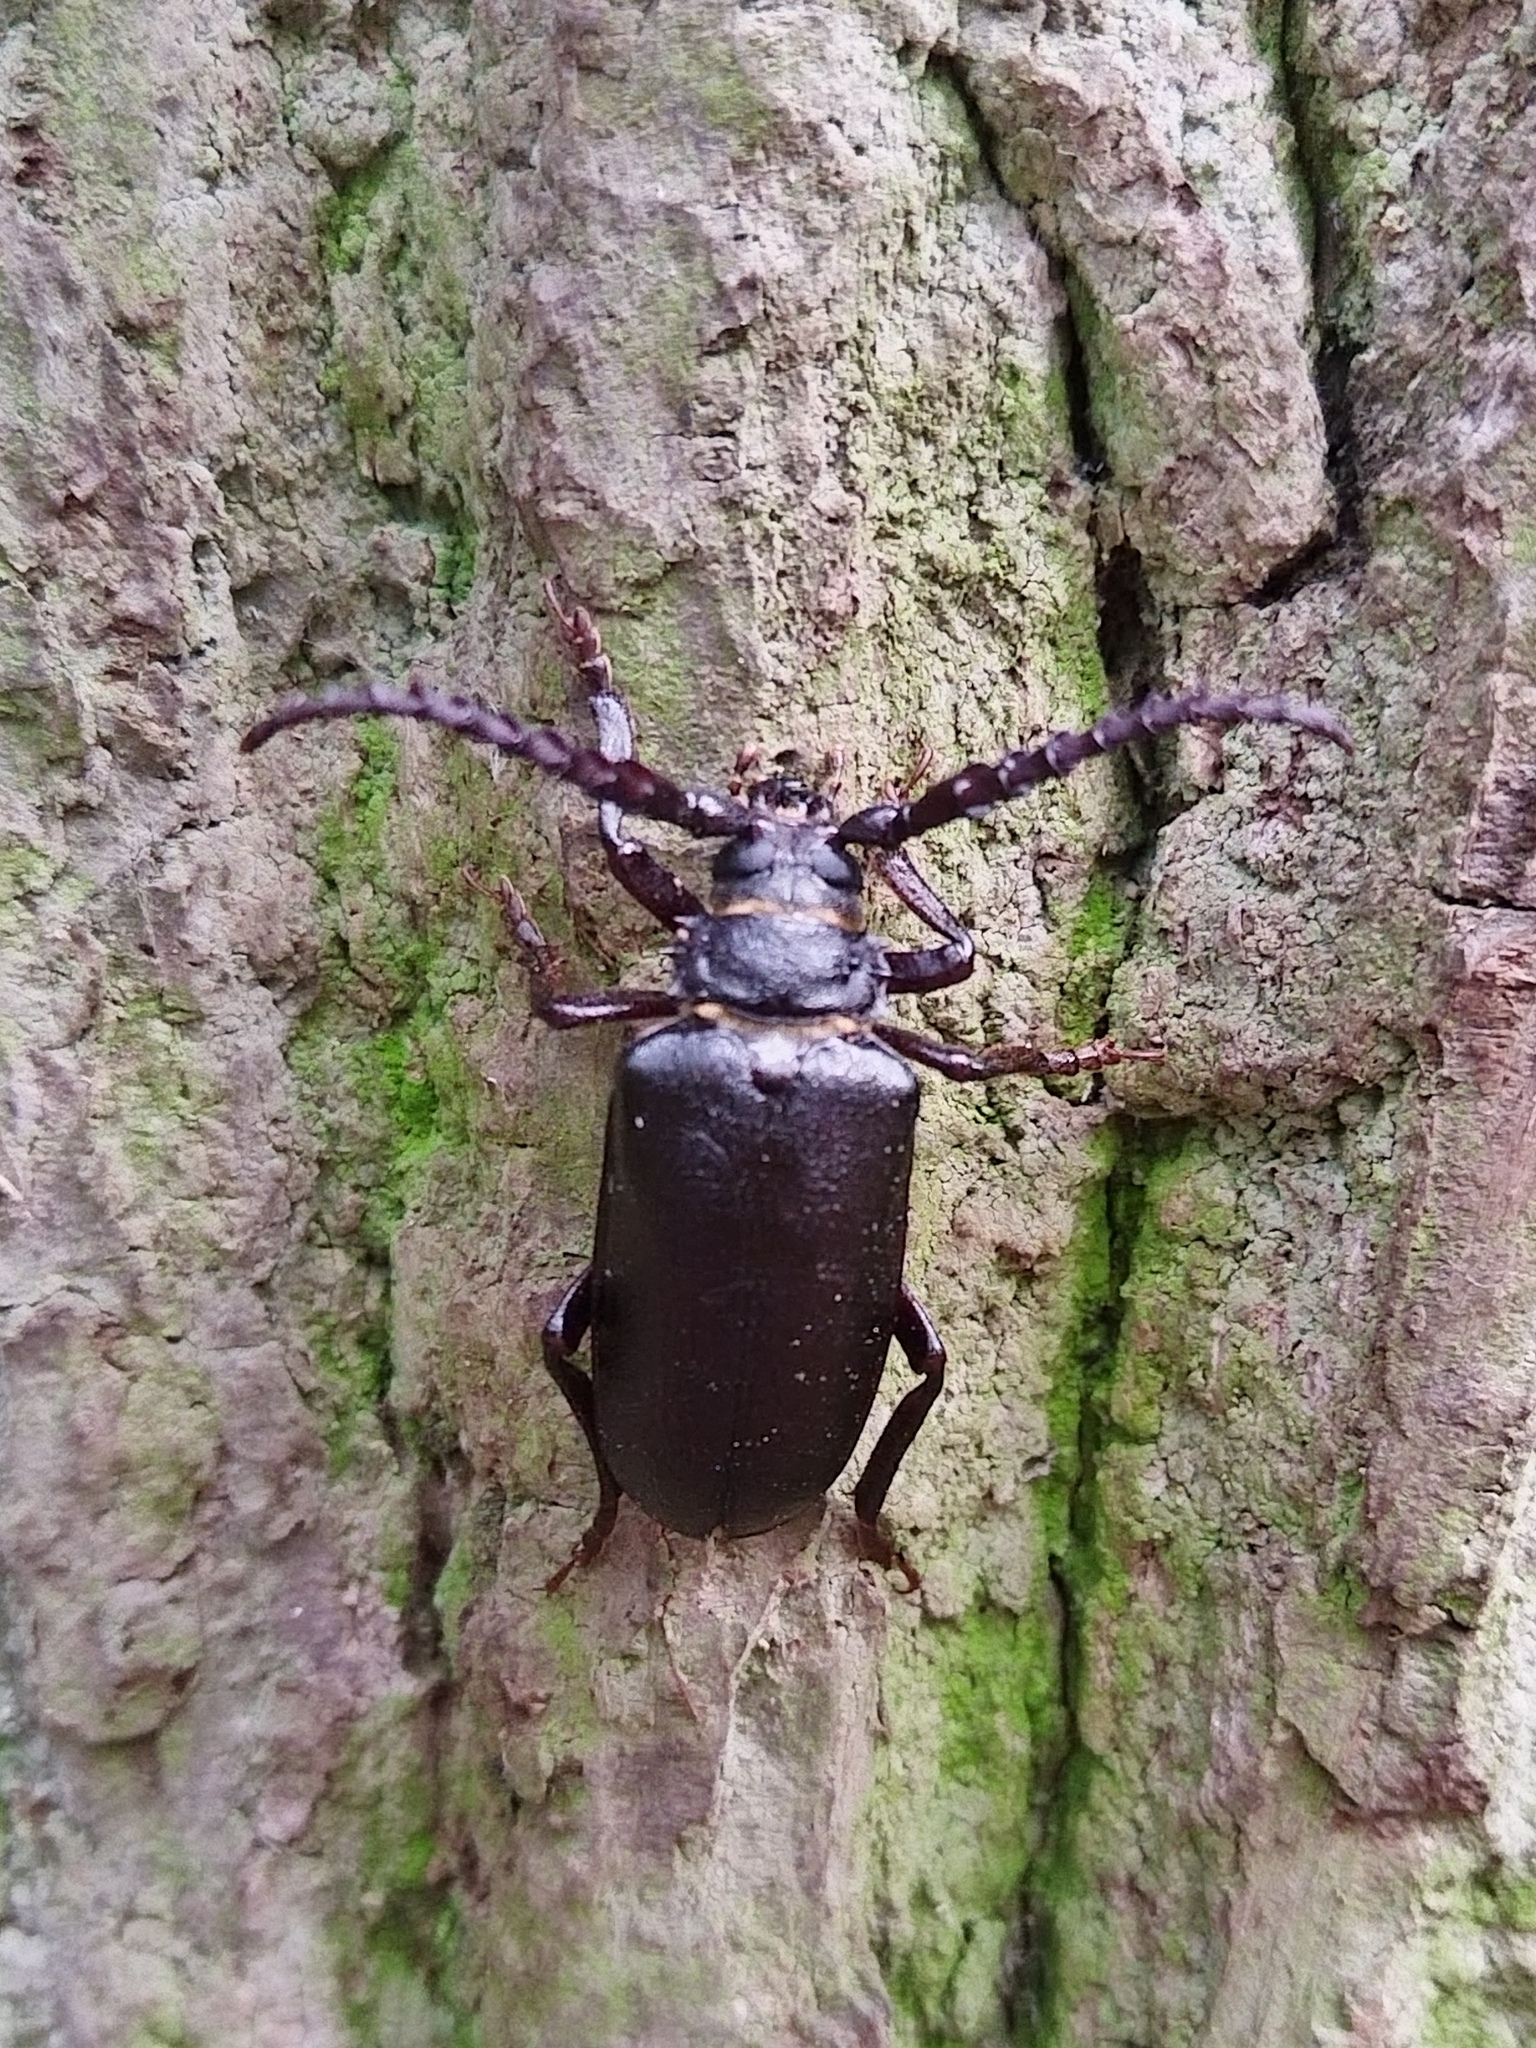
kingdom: Animalia
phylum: Arthropoda
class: Insecta
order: Coleoptera
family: Cerambycidae
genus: Prionus
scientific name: Prionus coriarius
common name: Tanner beetle
